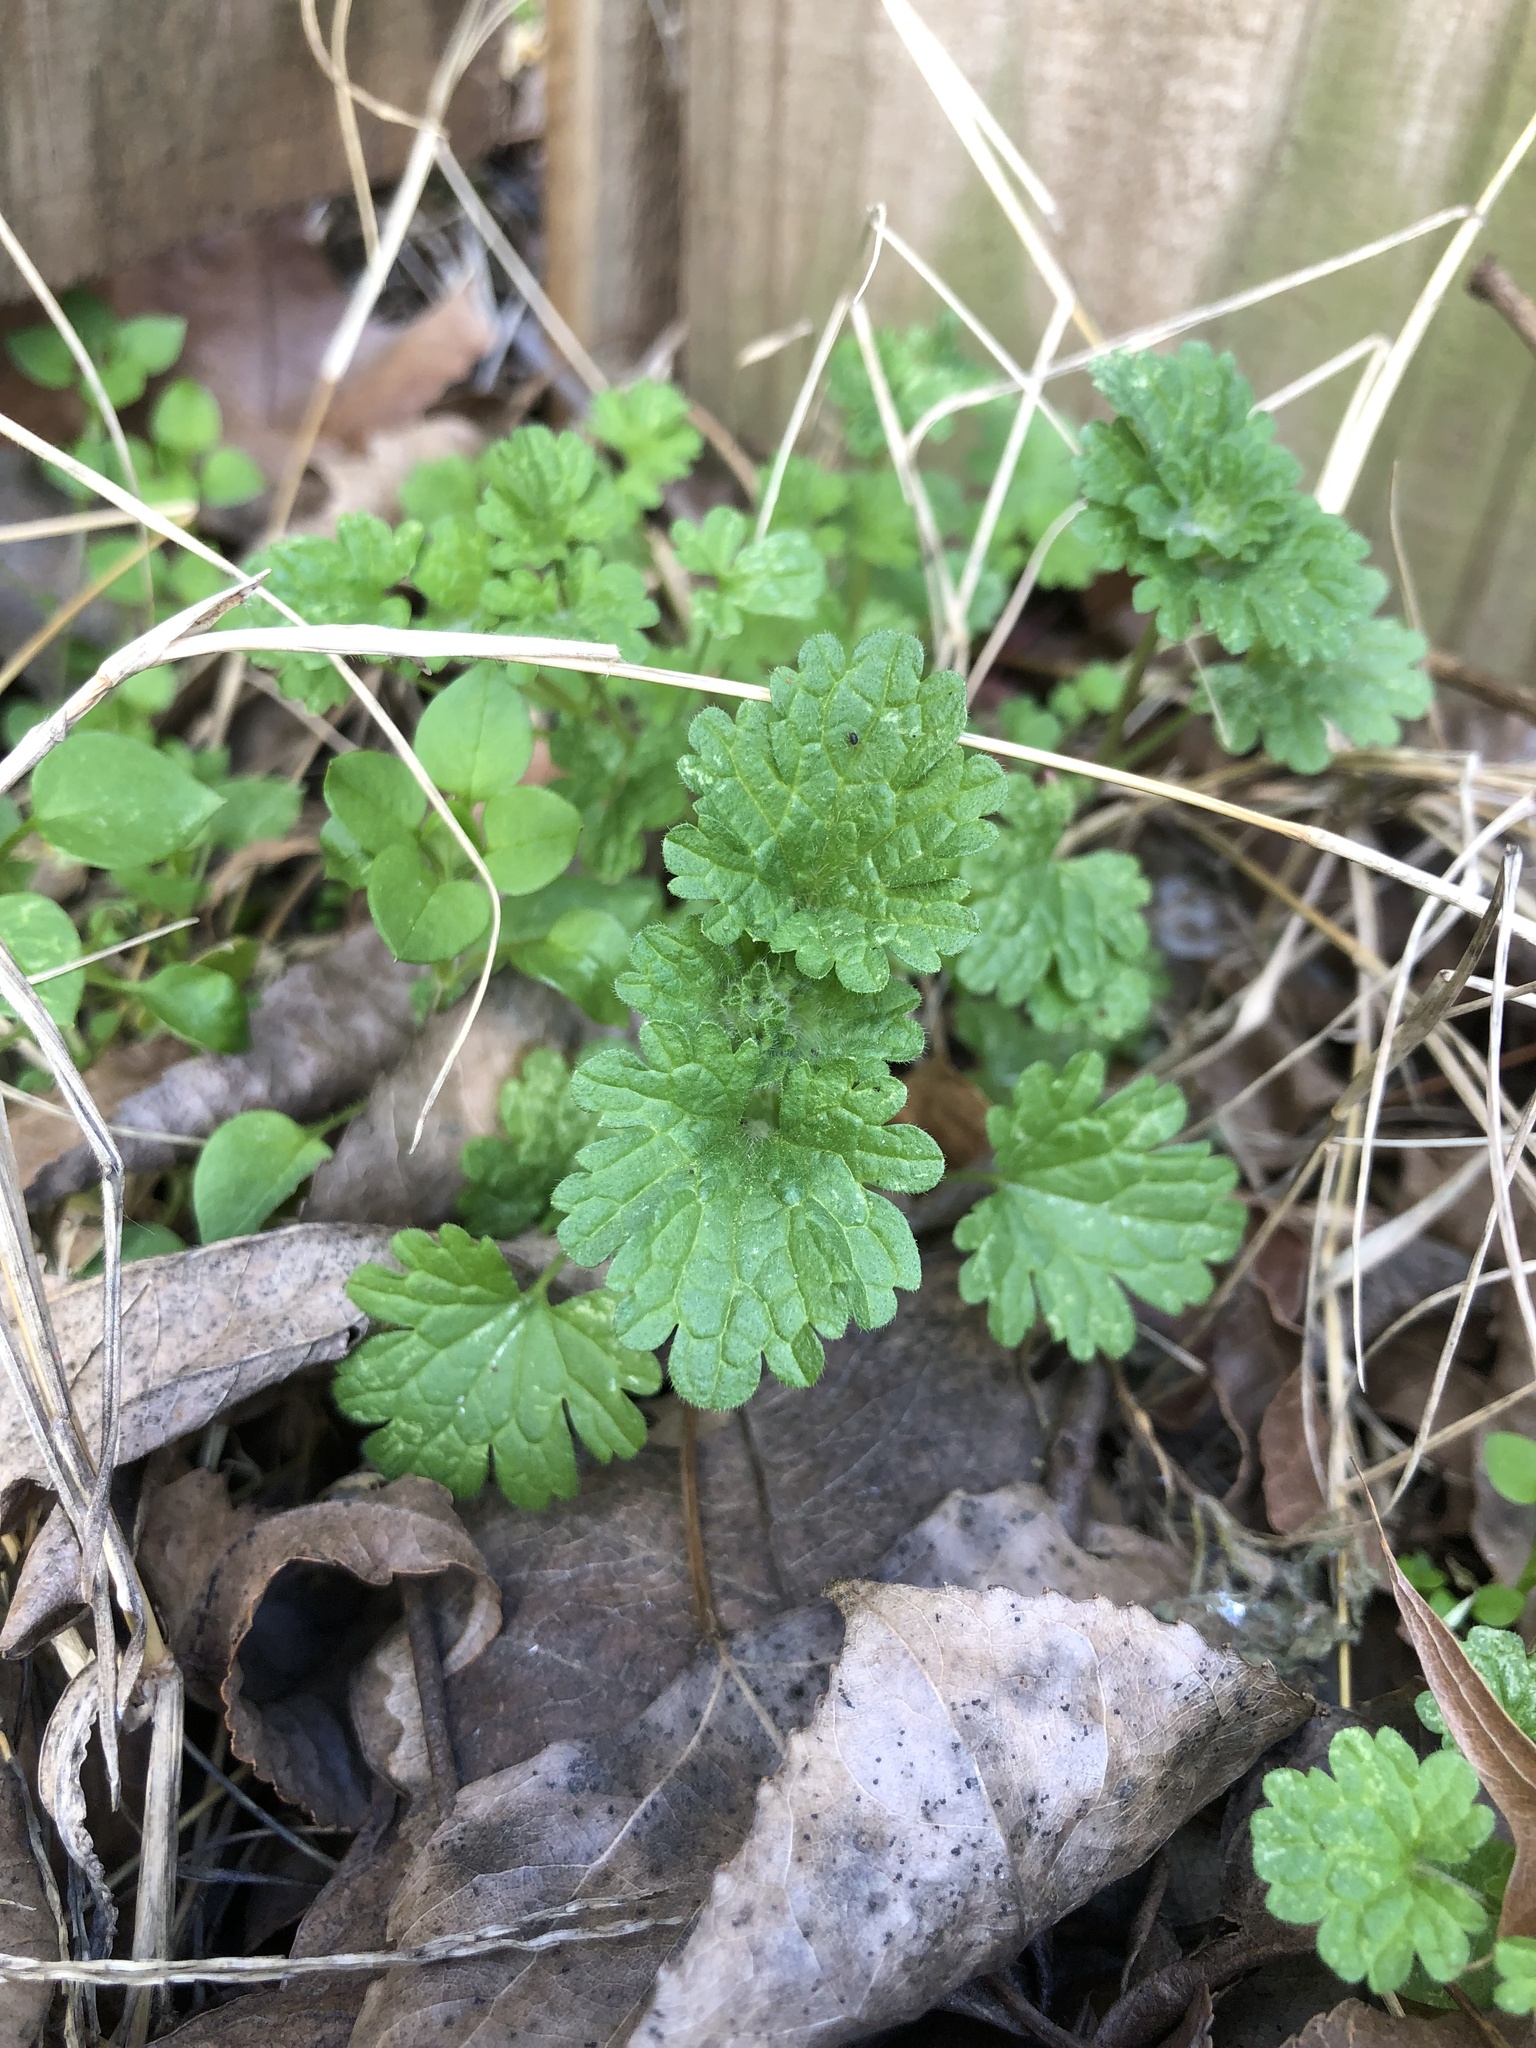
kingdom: Plantae
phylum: Tracheophyta
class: Magnoliopsida
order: Lamiales
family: Lamiaceae
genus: Lamium
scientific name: Lamium amplexicaule
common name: Henbit dead-nettle
